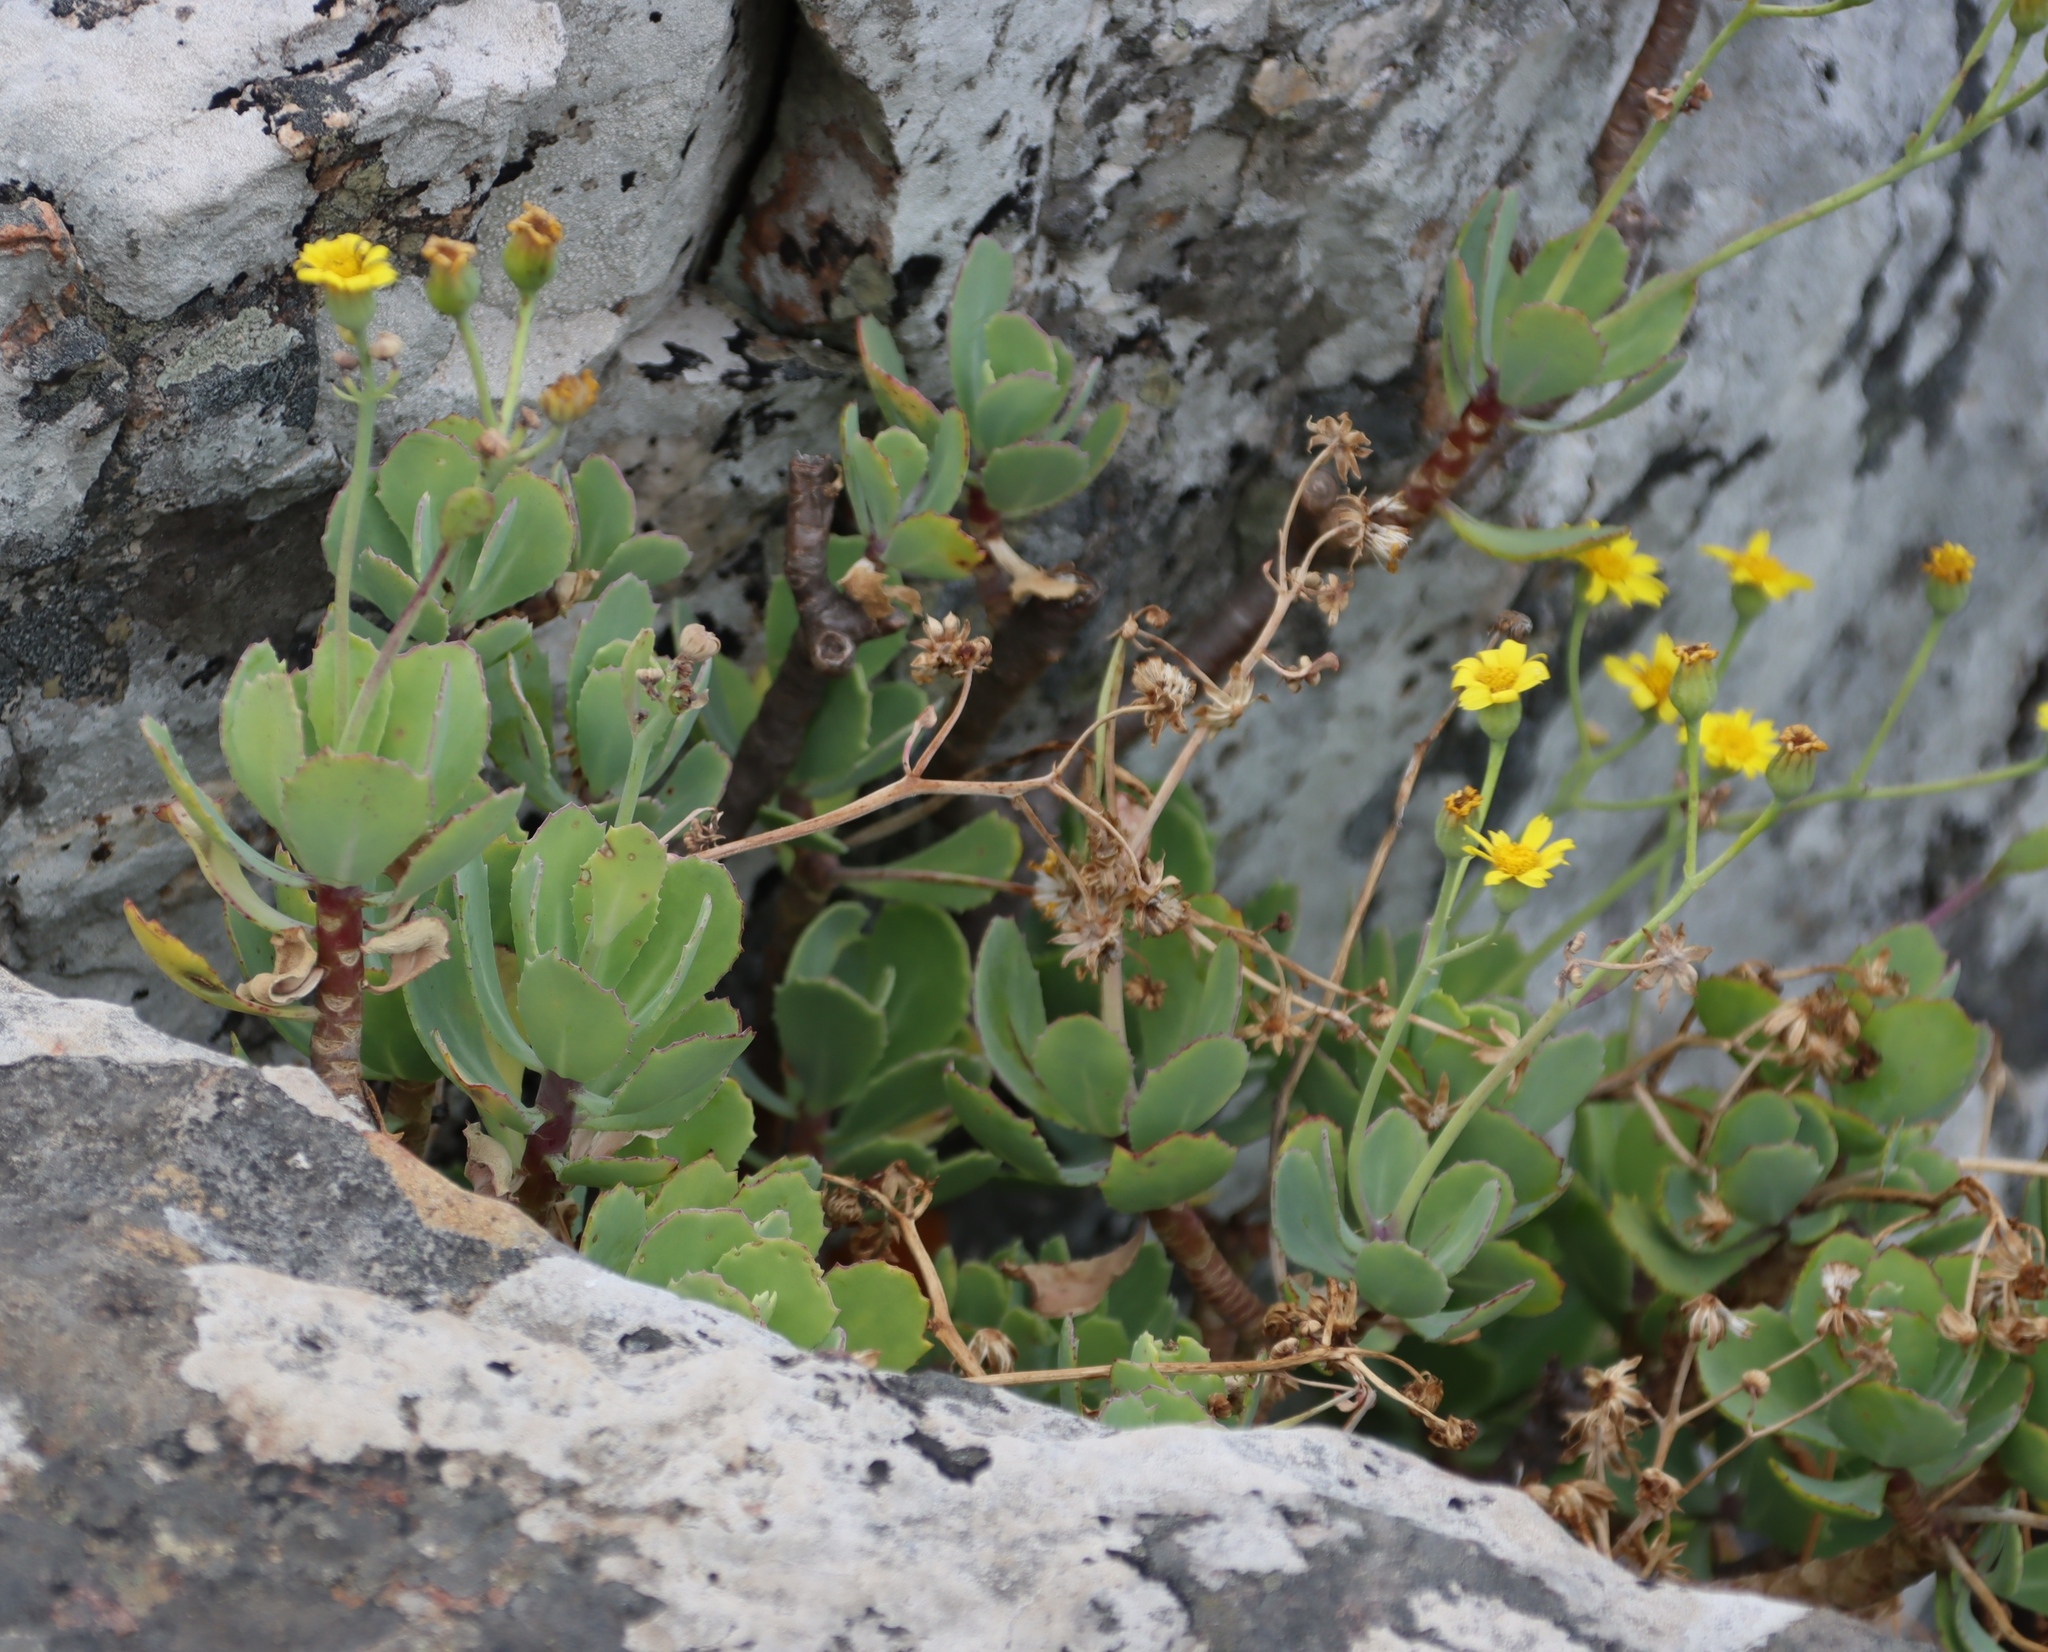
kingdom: Plantae
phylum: Tracheophyta
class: Magnoliopsida
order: Asterales
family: Asteraceae
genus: Othonna
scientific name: Othonna dentata
